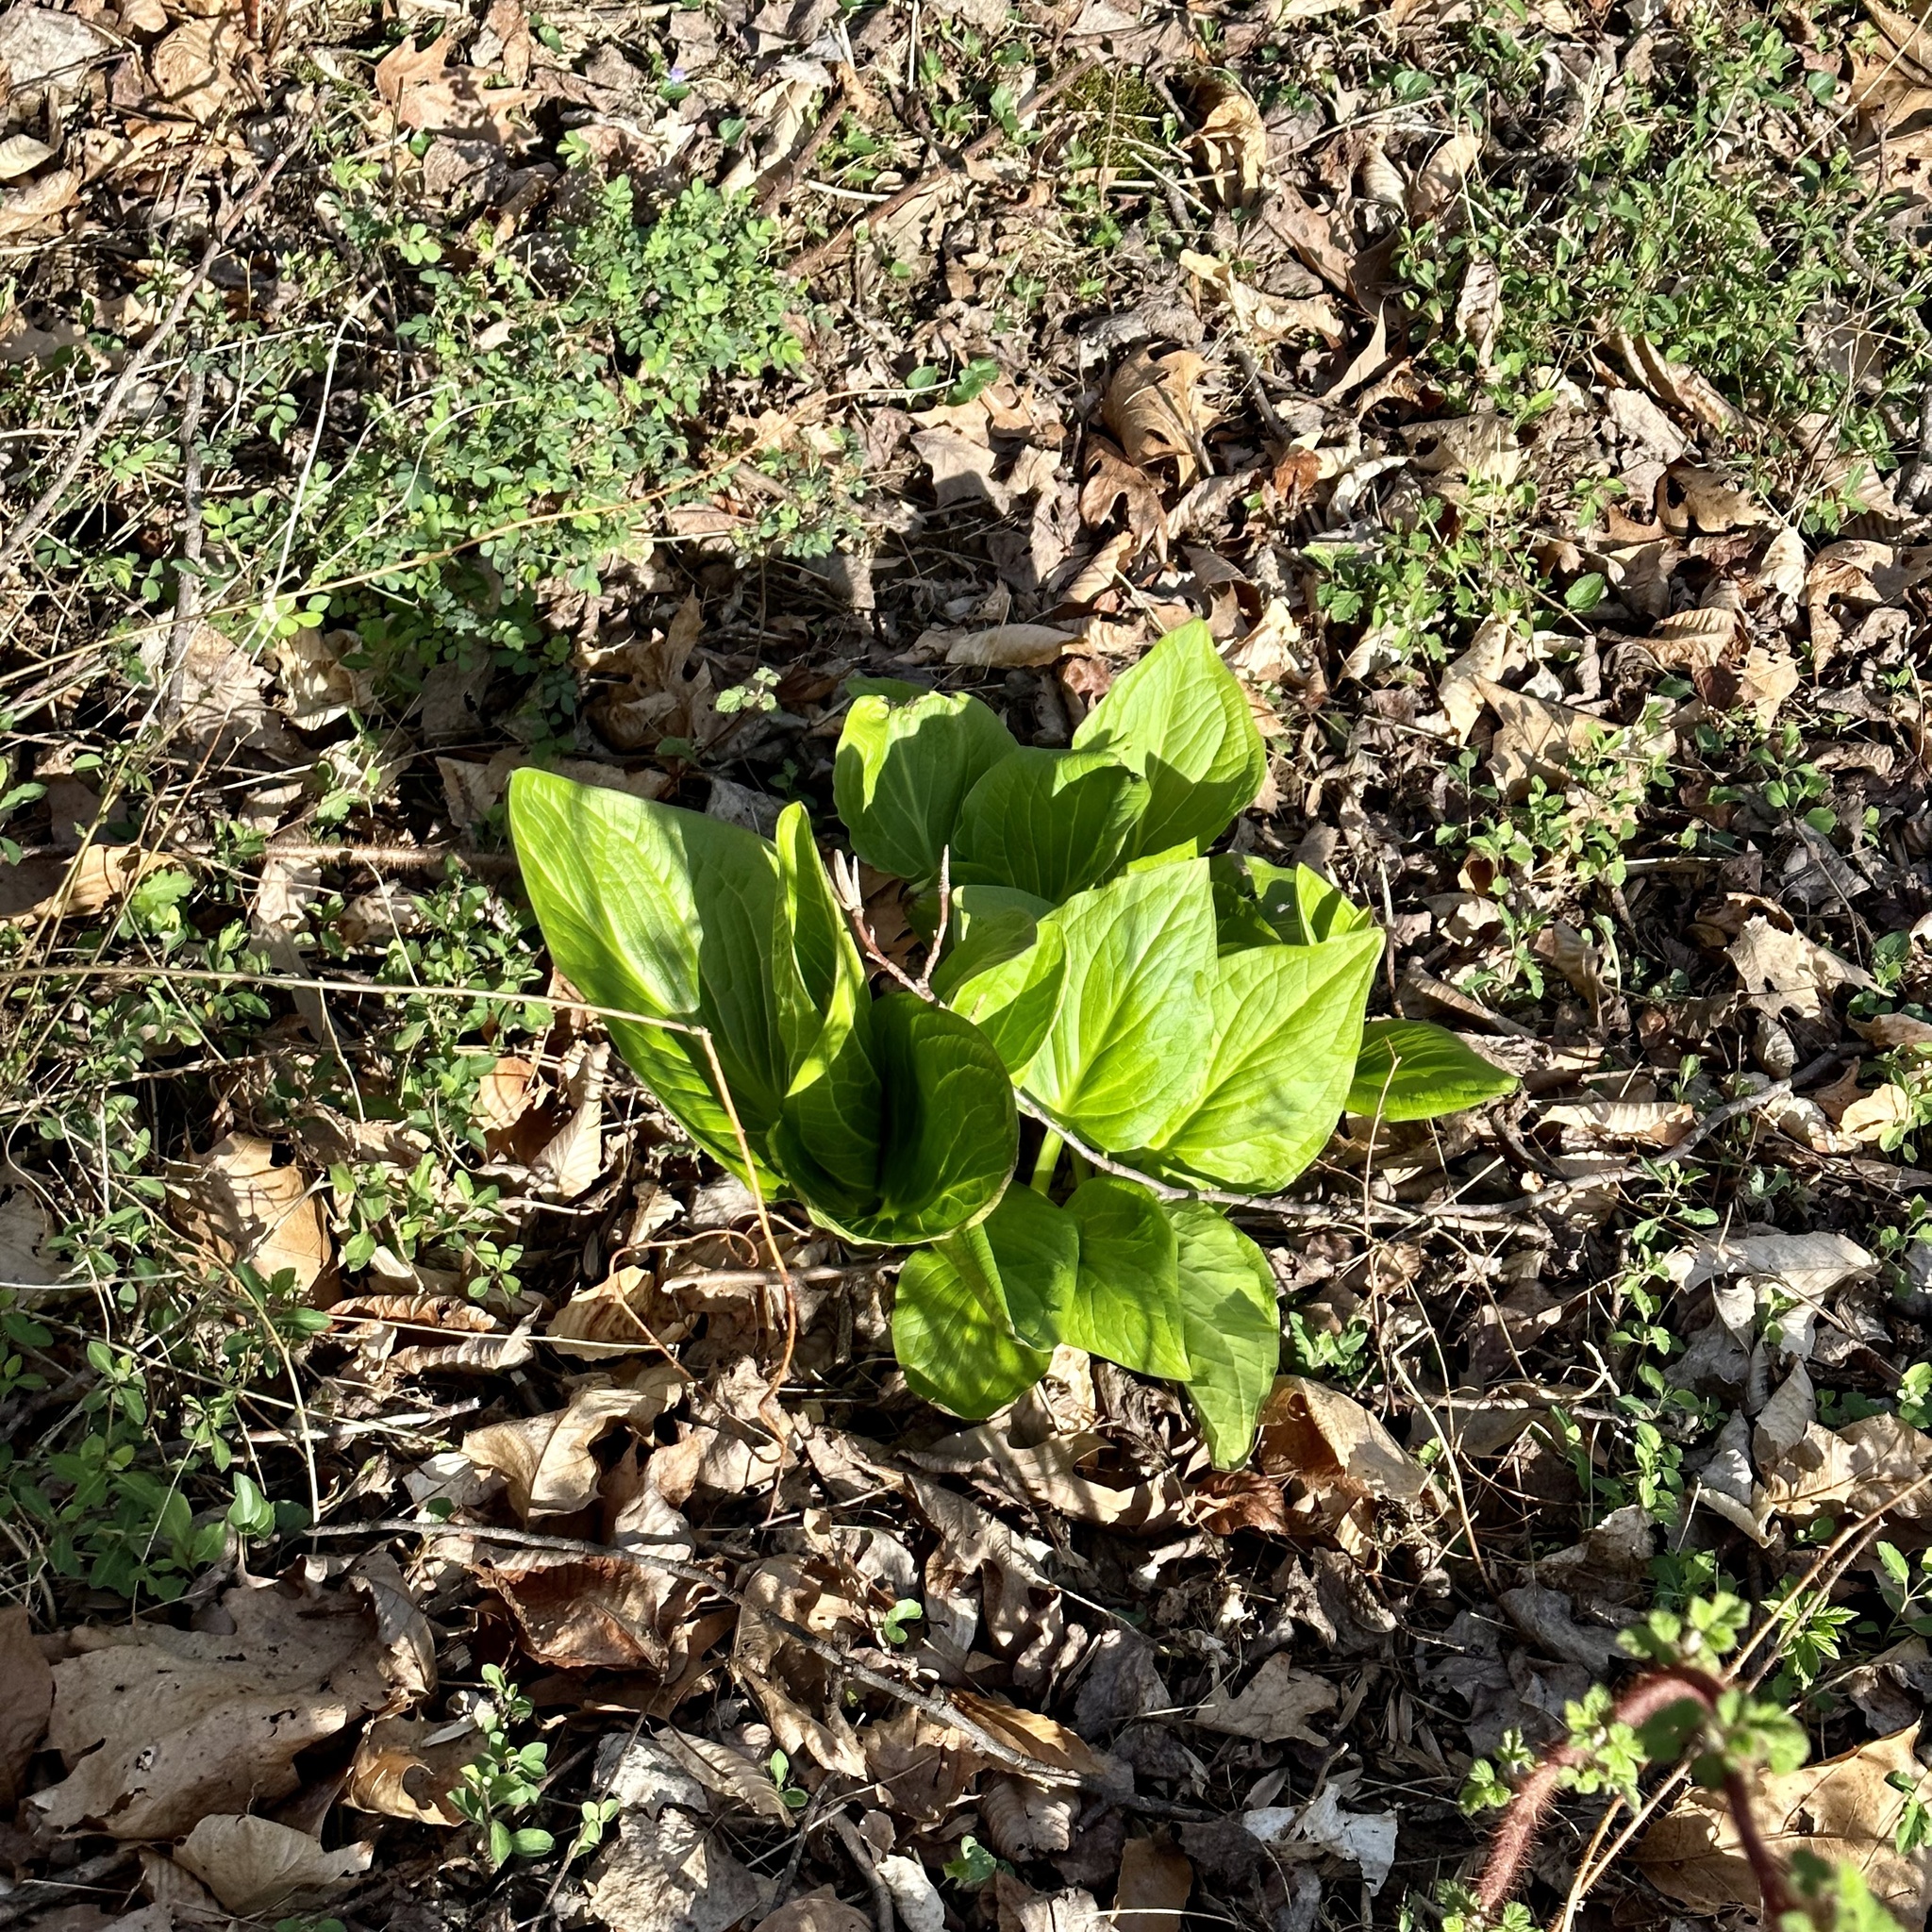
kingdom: Plantae
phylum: Tracheophyta
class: Liliopsida
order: Alismatales
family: Araceae
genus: Symplocarpus
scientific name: Symplocarpus foetidus
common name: Eastern skunk cabbage
